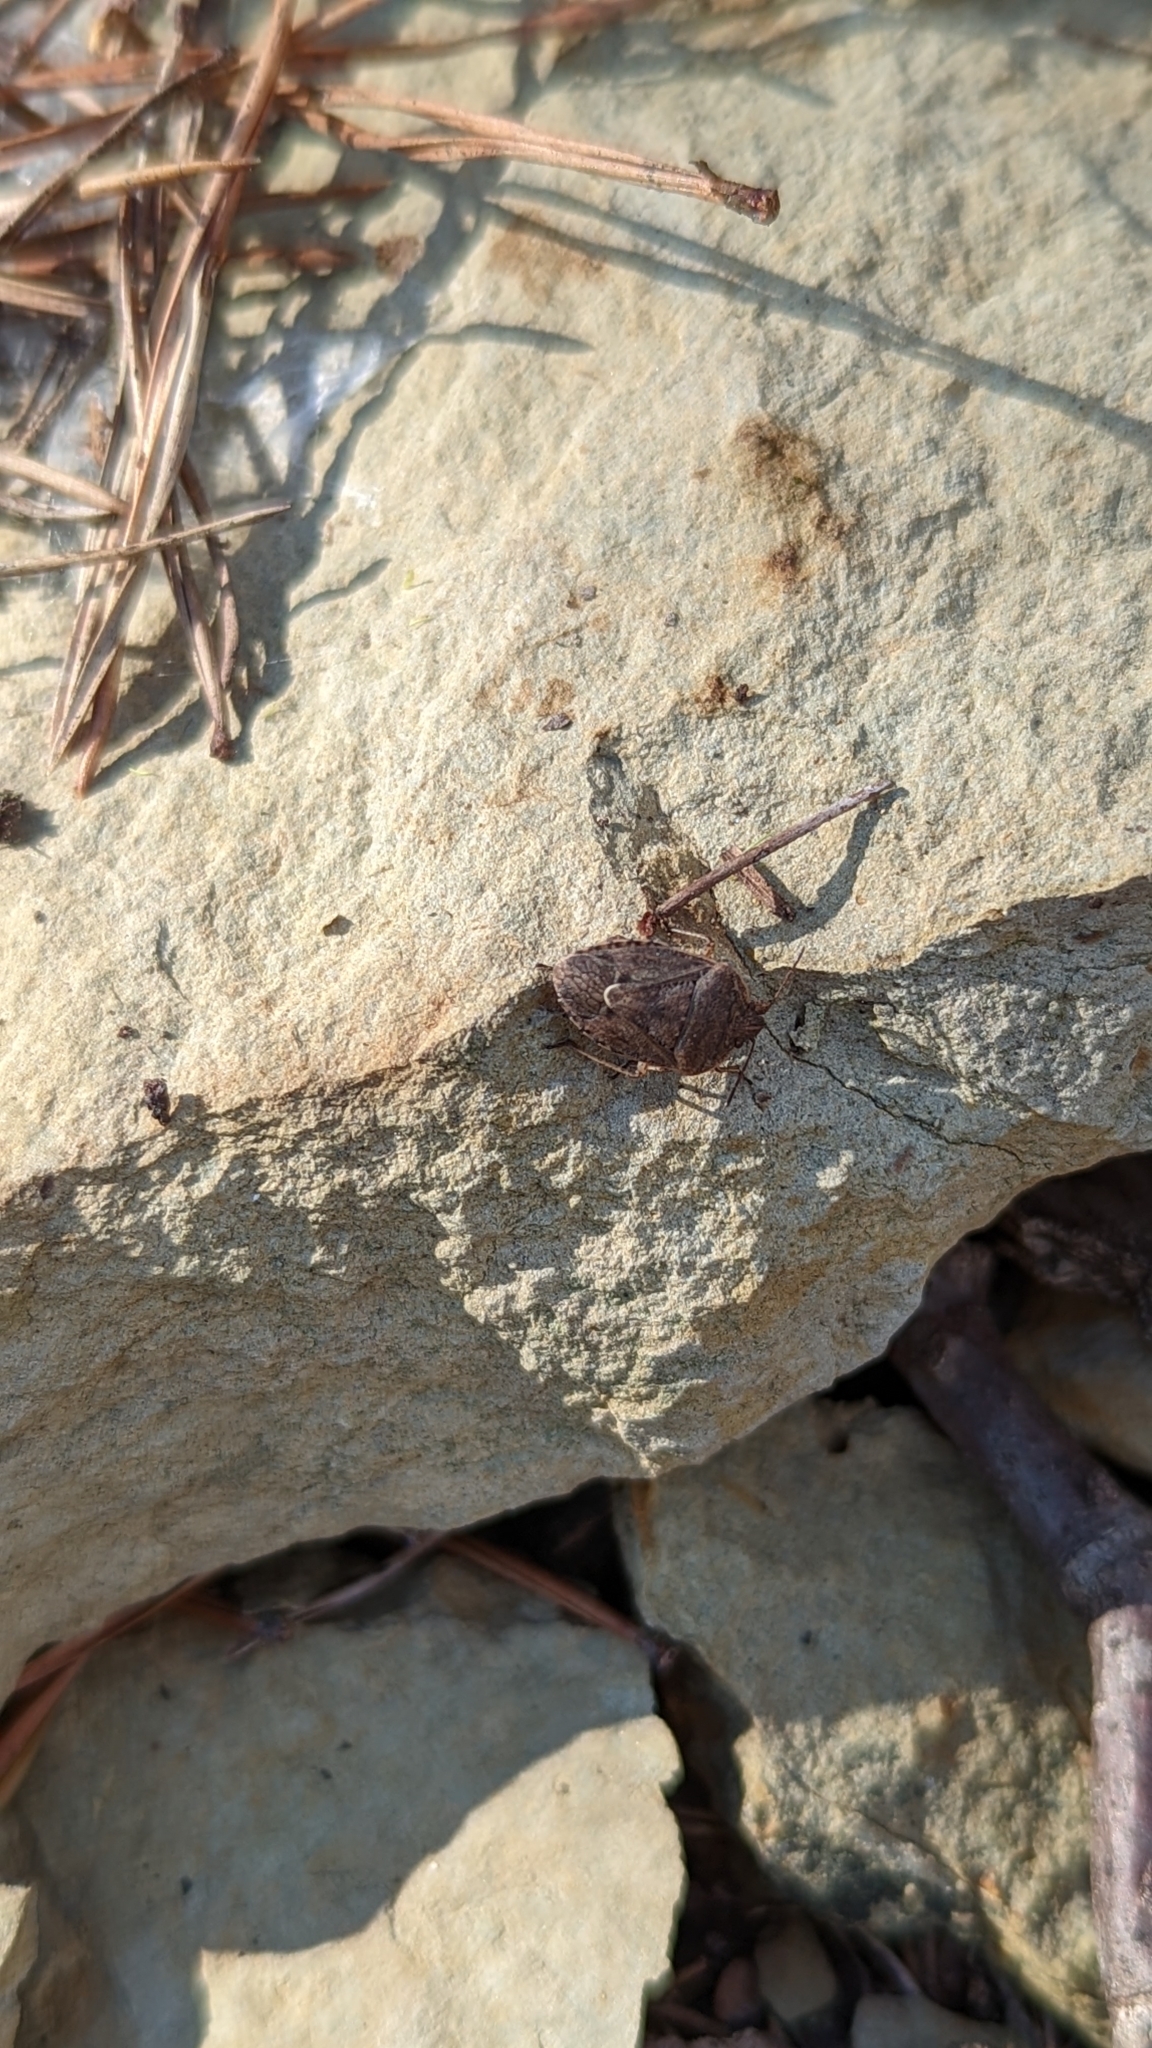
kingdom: Animalia
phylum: Arthropoda
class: Insecta
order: Hemiptera
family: Pentatomidae
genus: Hymenarcys
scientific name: Hymenarcys nervosa
